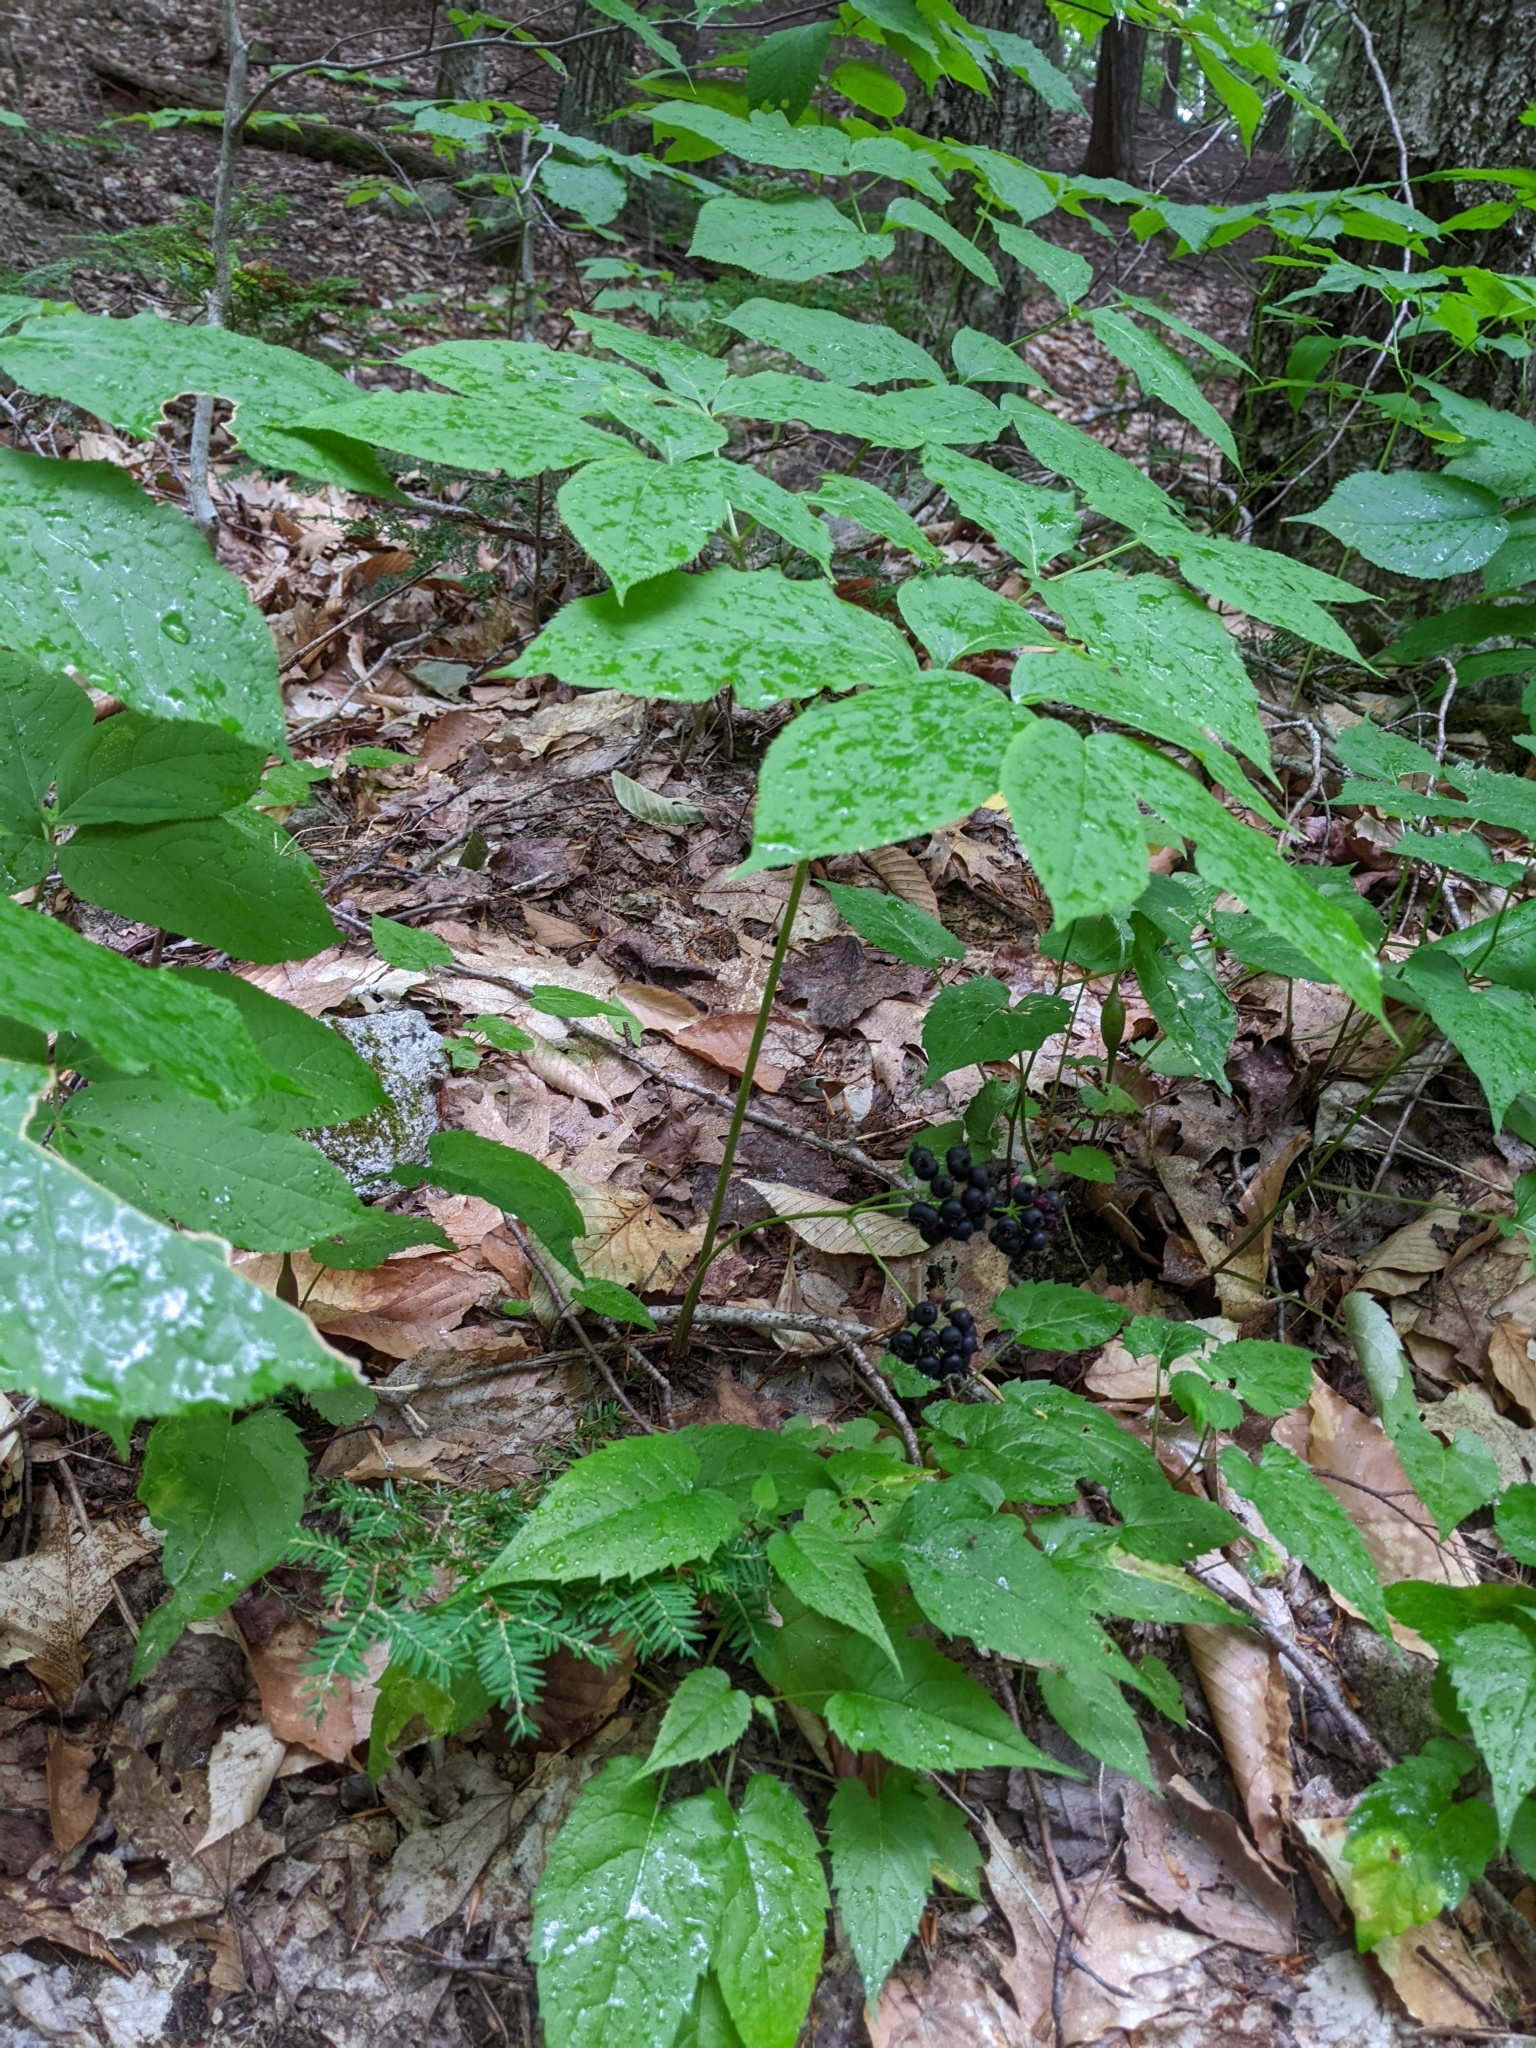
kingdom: Plantae
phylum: Tracheophyta
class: Magnoliopsida
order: Apiales
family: Araliaceae
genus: Aralia
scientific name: Aralia nudicaulis
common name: Wild sarsaparilla
